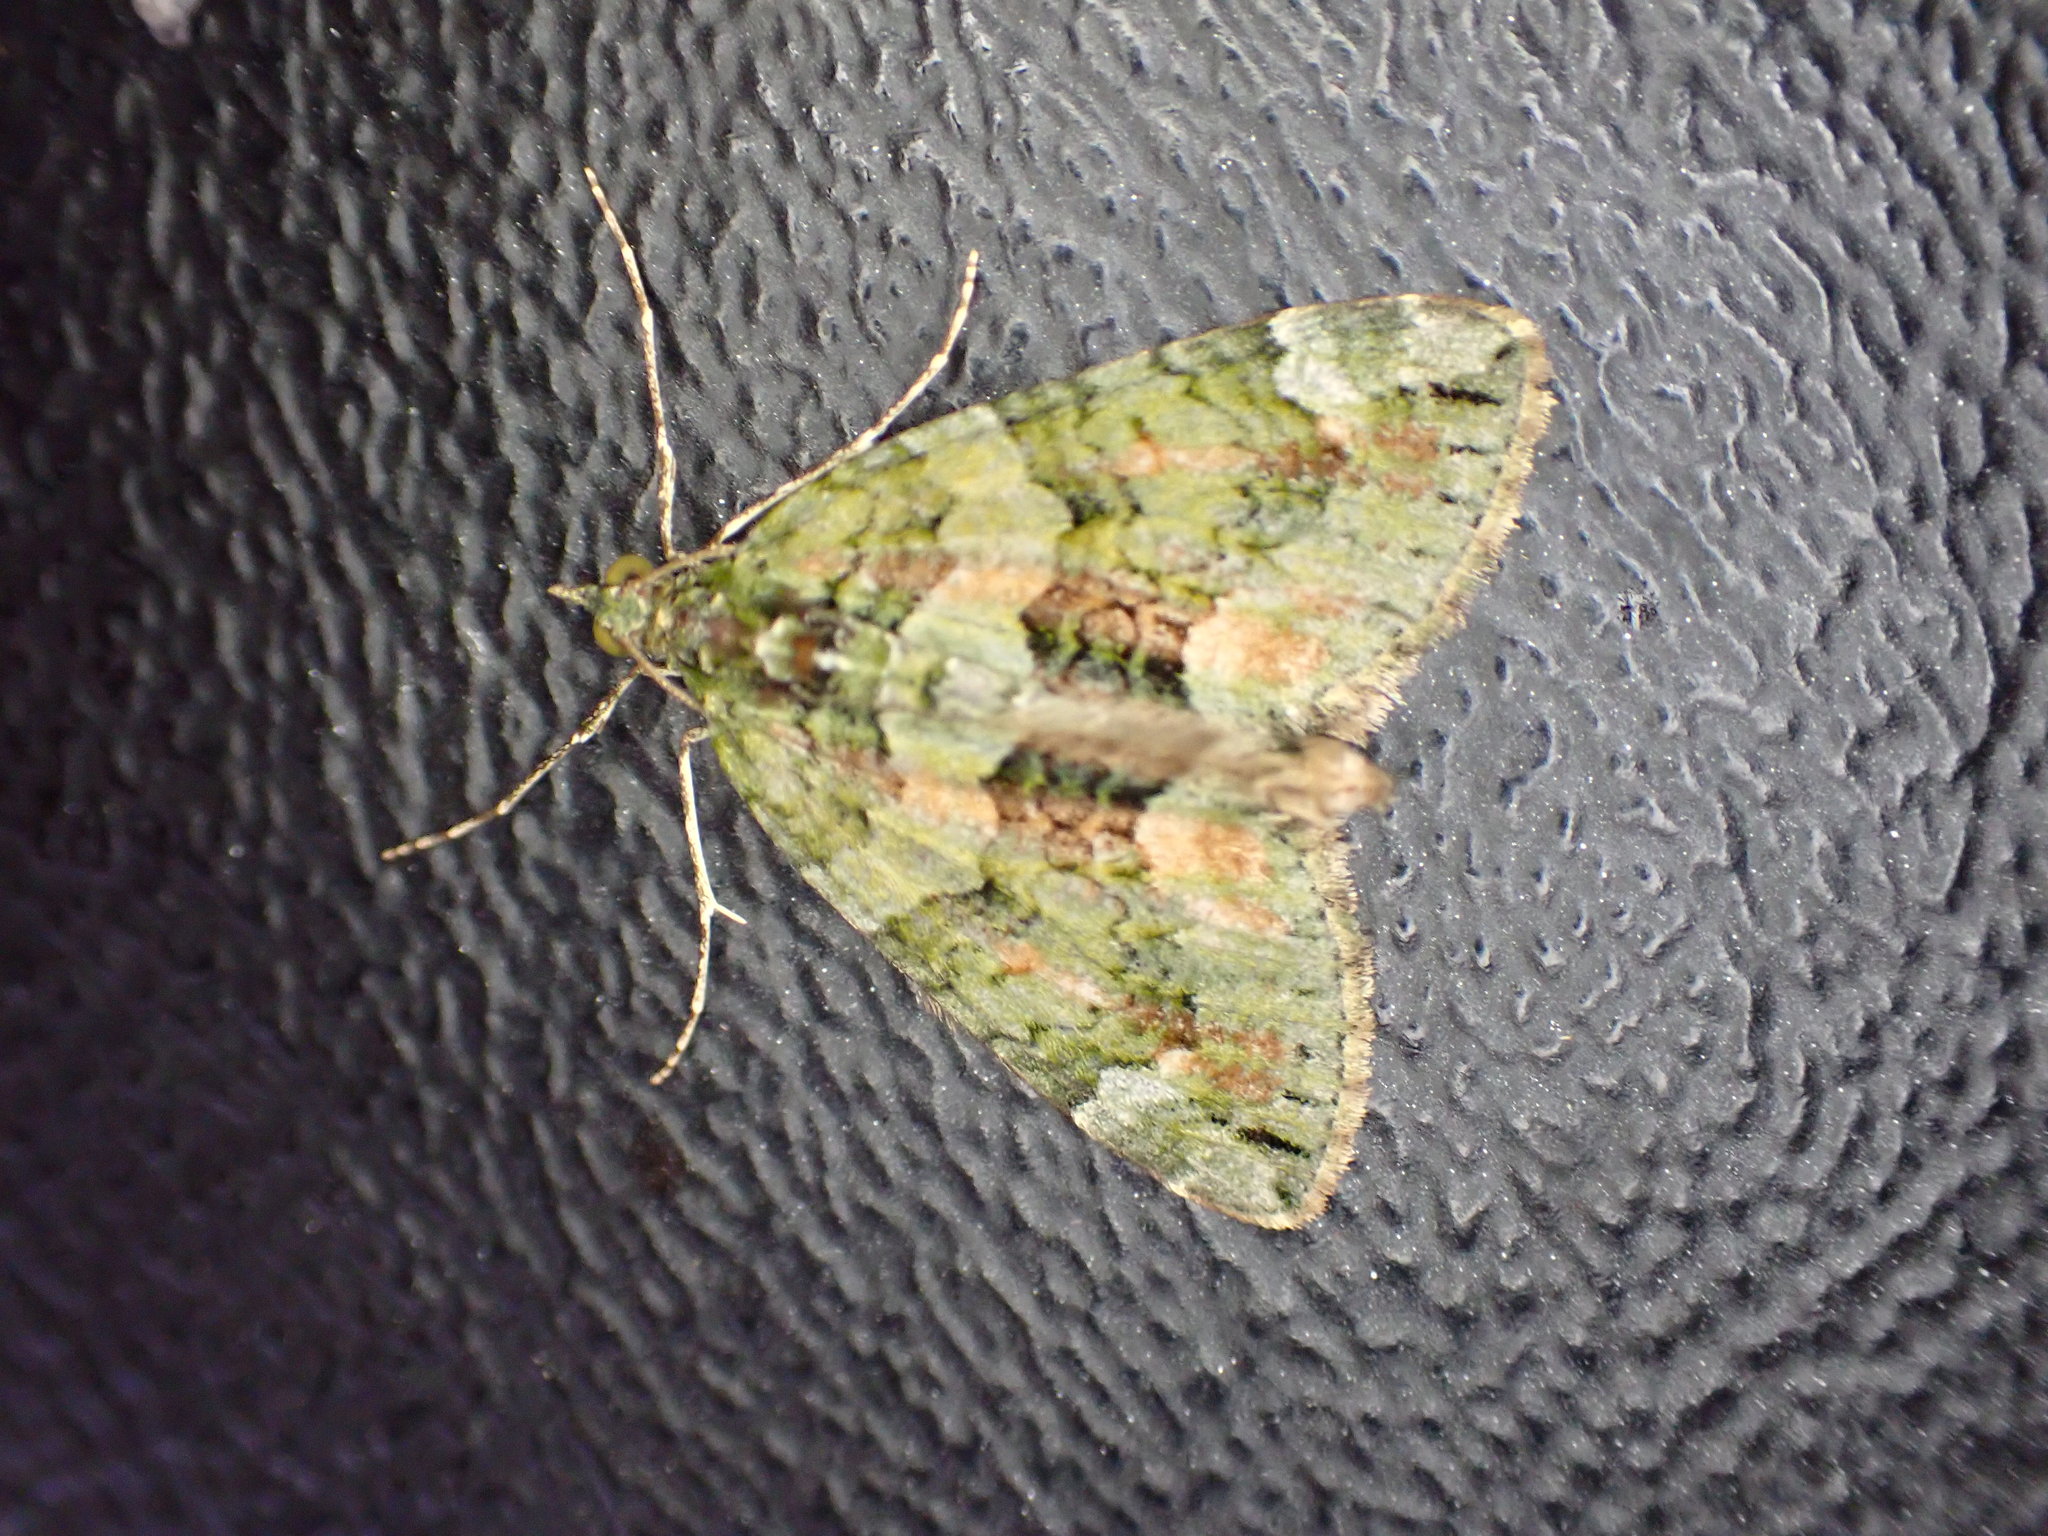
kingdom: Animalia
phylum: Arthropoda
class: Insecta
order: Lepidoptera
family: Geometridae
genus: Chloroclysta
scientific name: Chloroclysta siterata
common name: Red-green carpet
